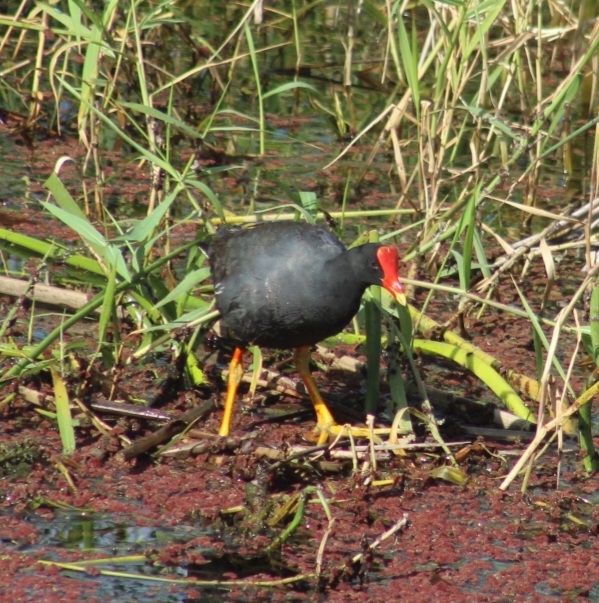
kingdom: Animalia
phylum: Chordata
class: Aves
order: Gruiformes
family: Rallidae
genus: Gallinula
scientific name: Gallinula chloropus
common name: Common moorhen
